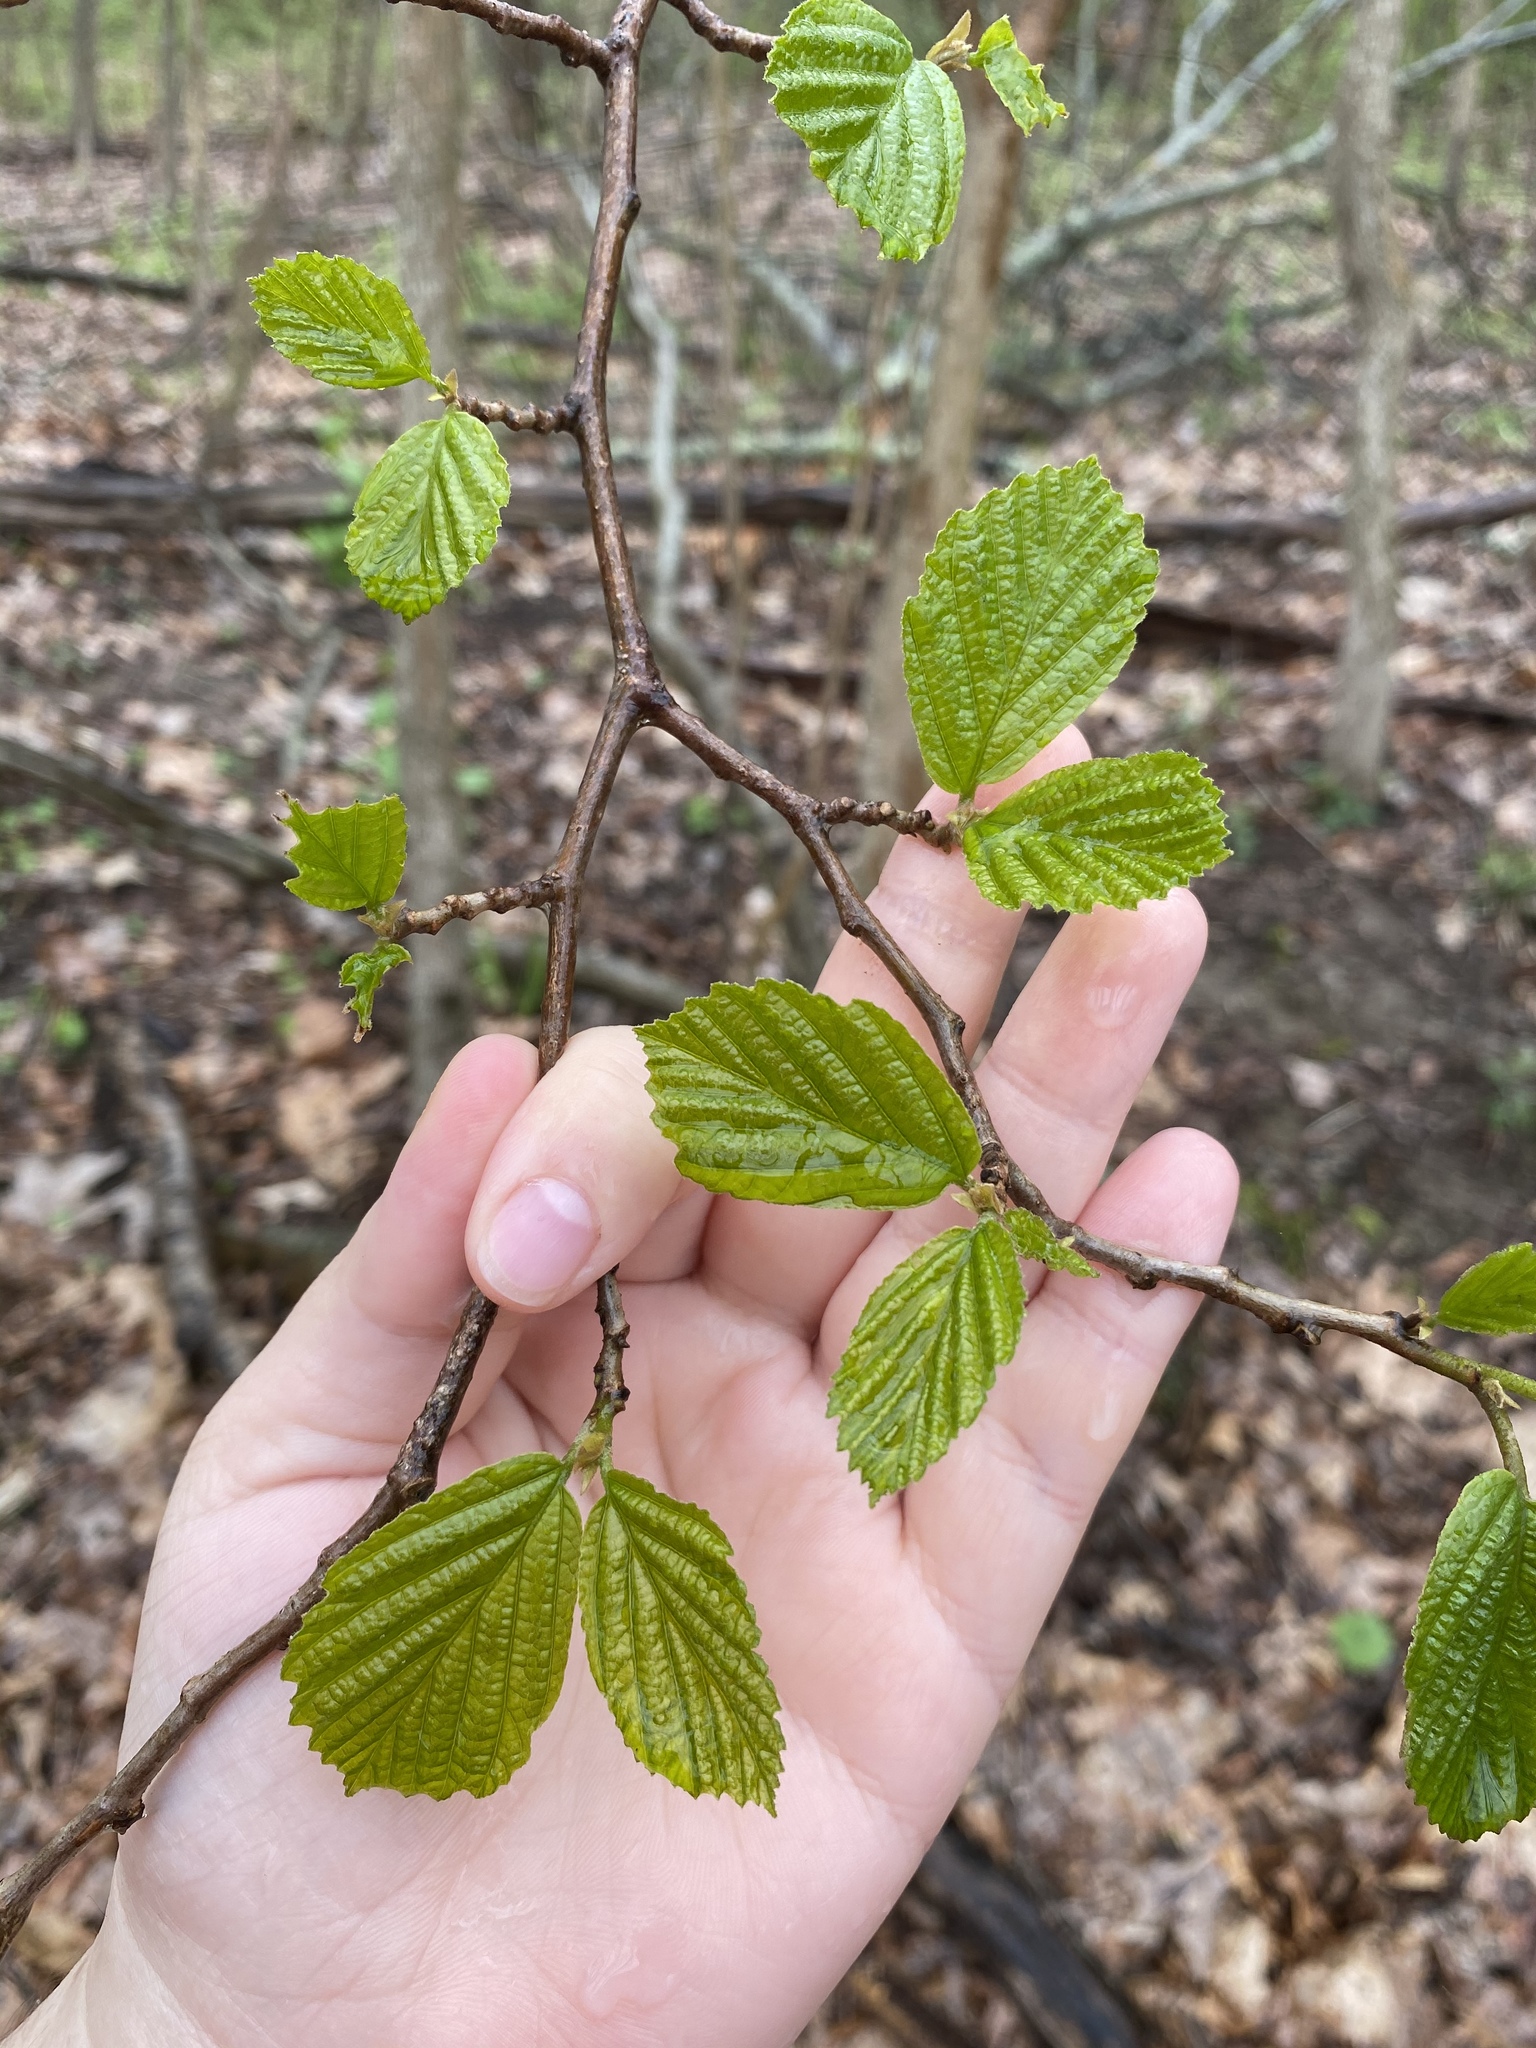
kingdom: Plantae
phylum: Tracheophyta
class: Magnoliopsida
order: Saxifragales
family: Hamamelidaceae
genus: Hamamelis
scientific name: Hamamelis virginiana
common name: Witch-hazel
